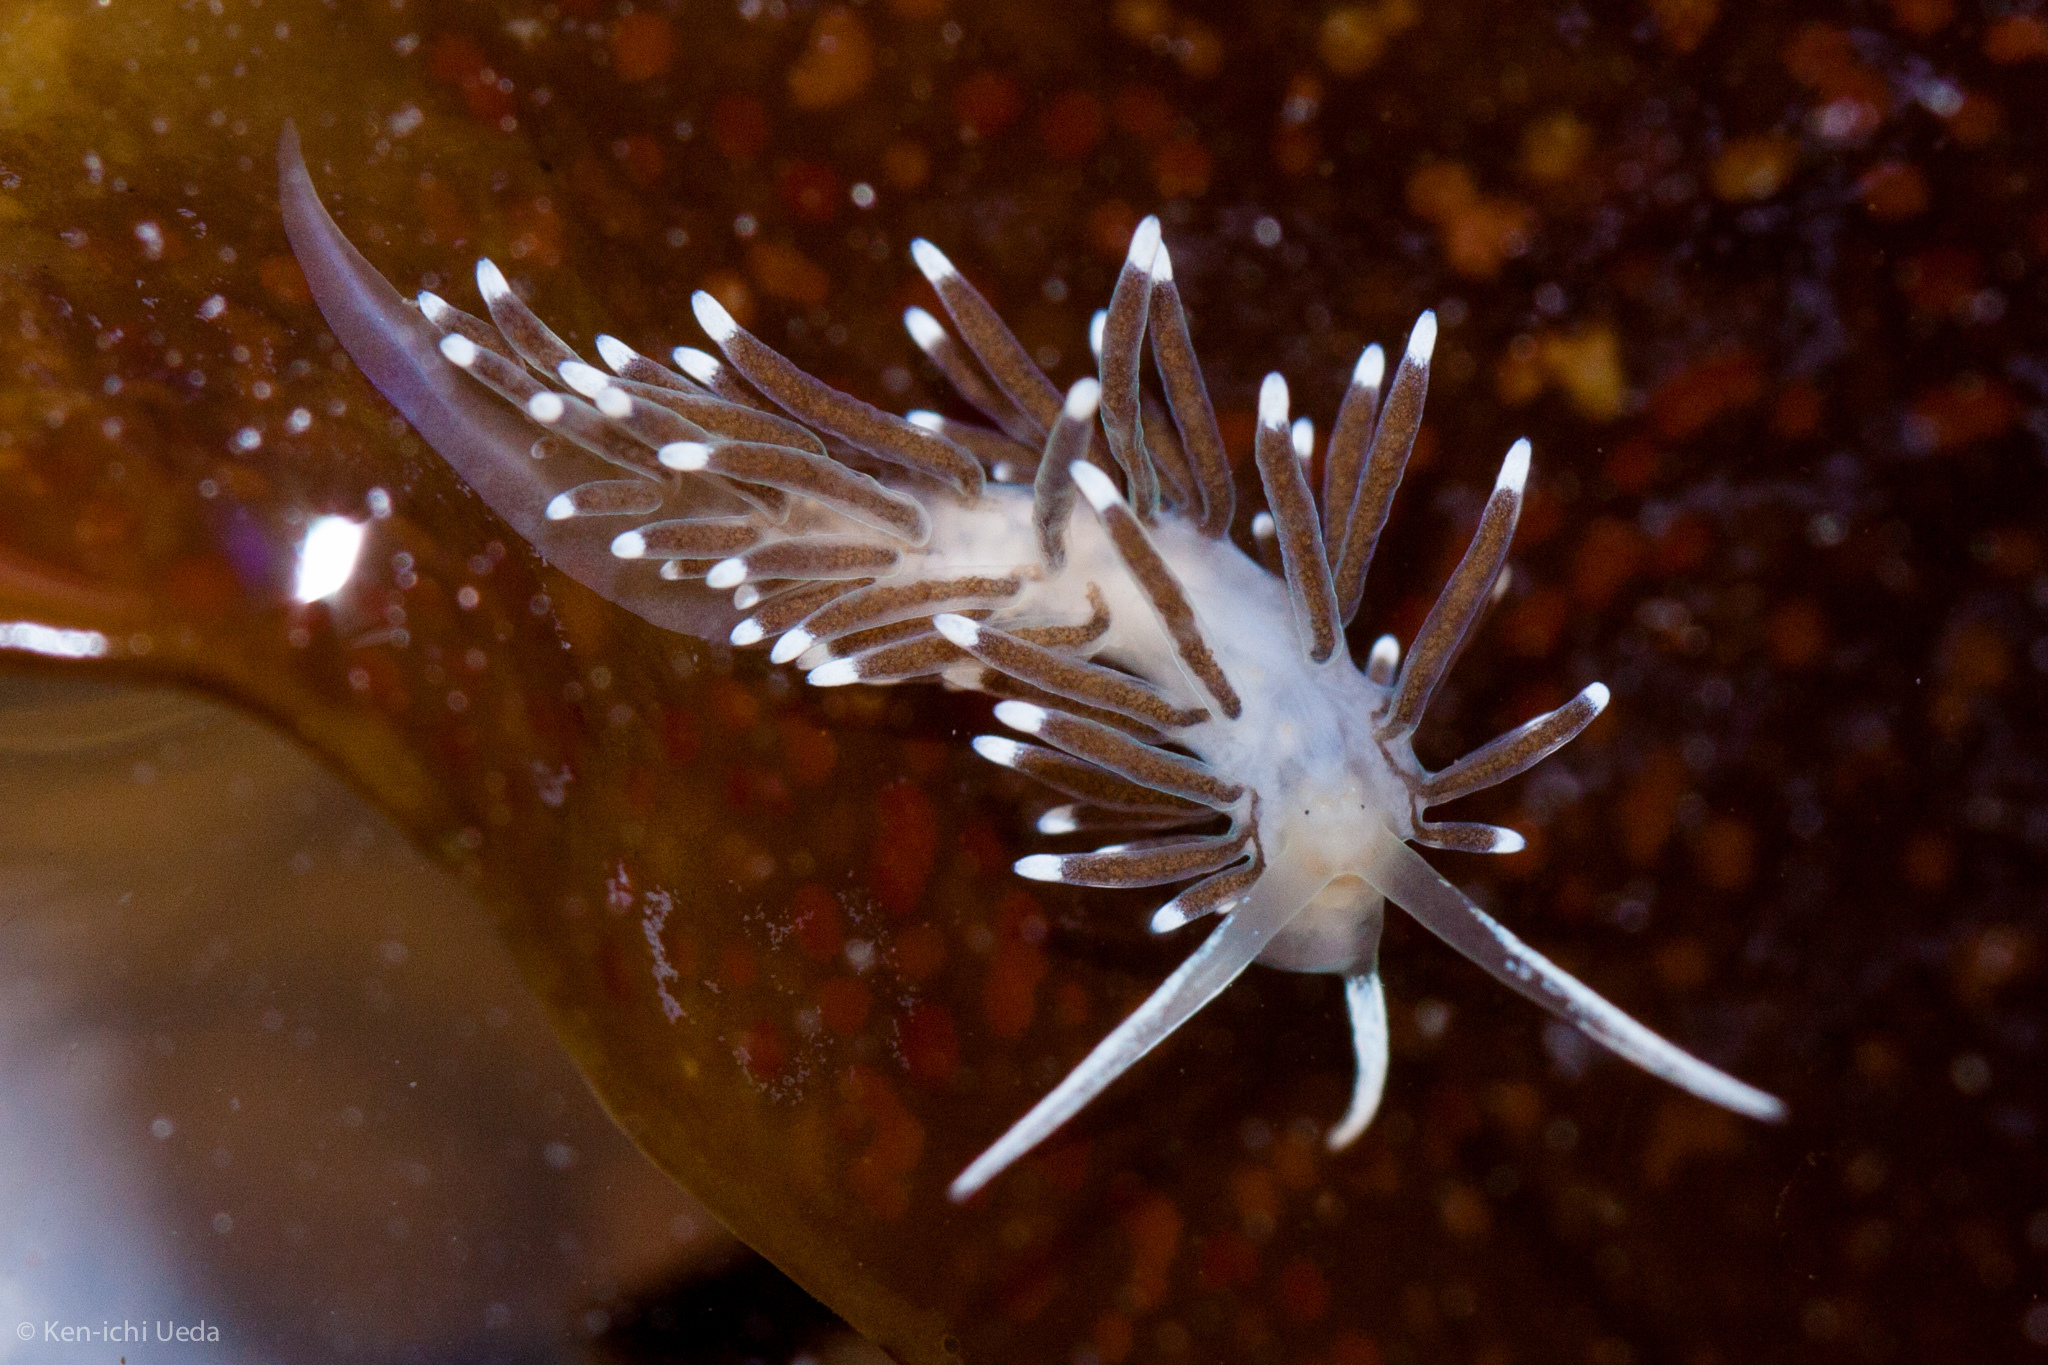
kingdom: Animalia
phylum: Mollusca
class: Gastropoda
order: Nudibranchia
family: Cuthonellidae
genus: Cuthonella
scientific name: Cuthonella cocoachroma
